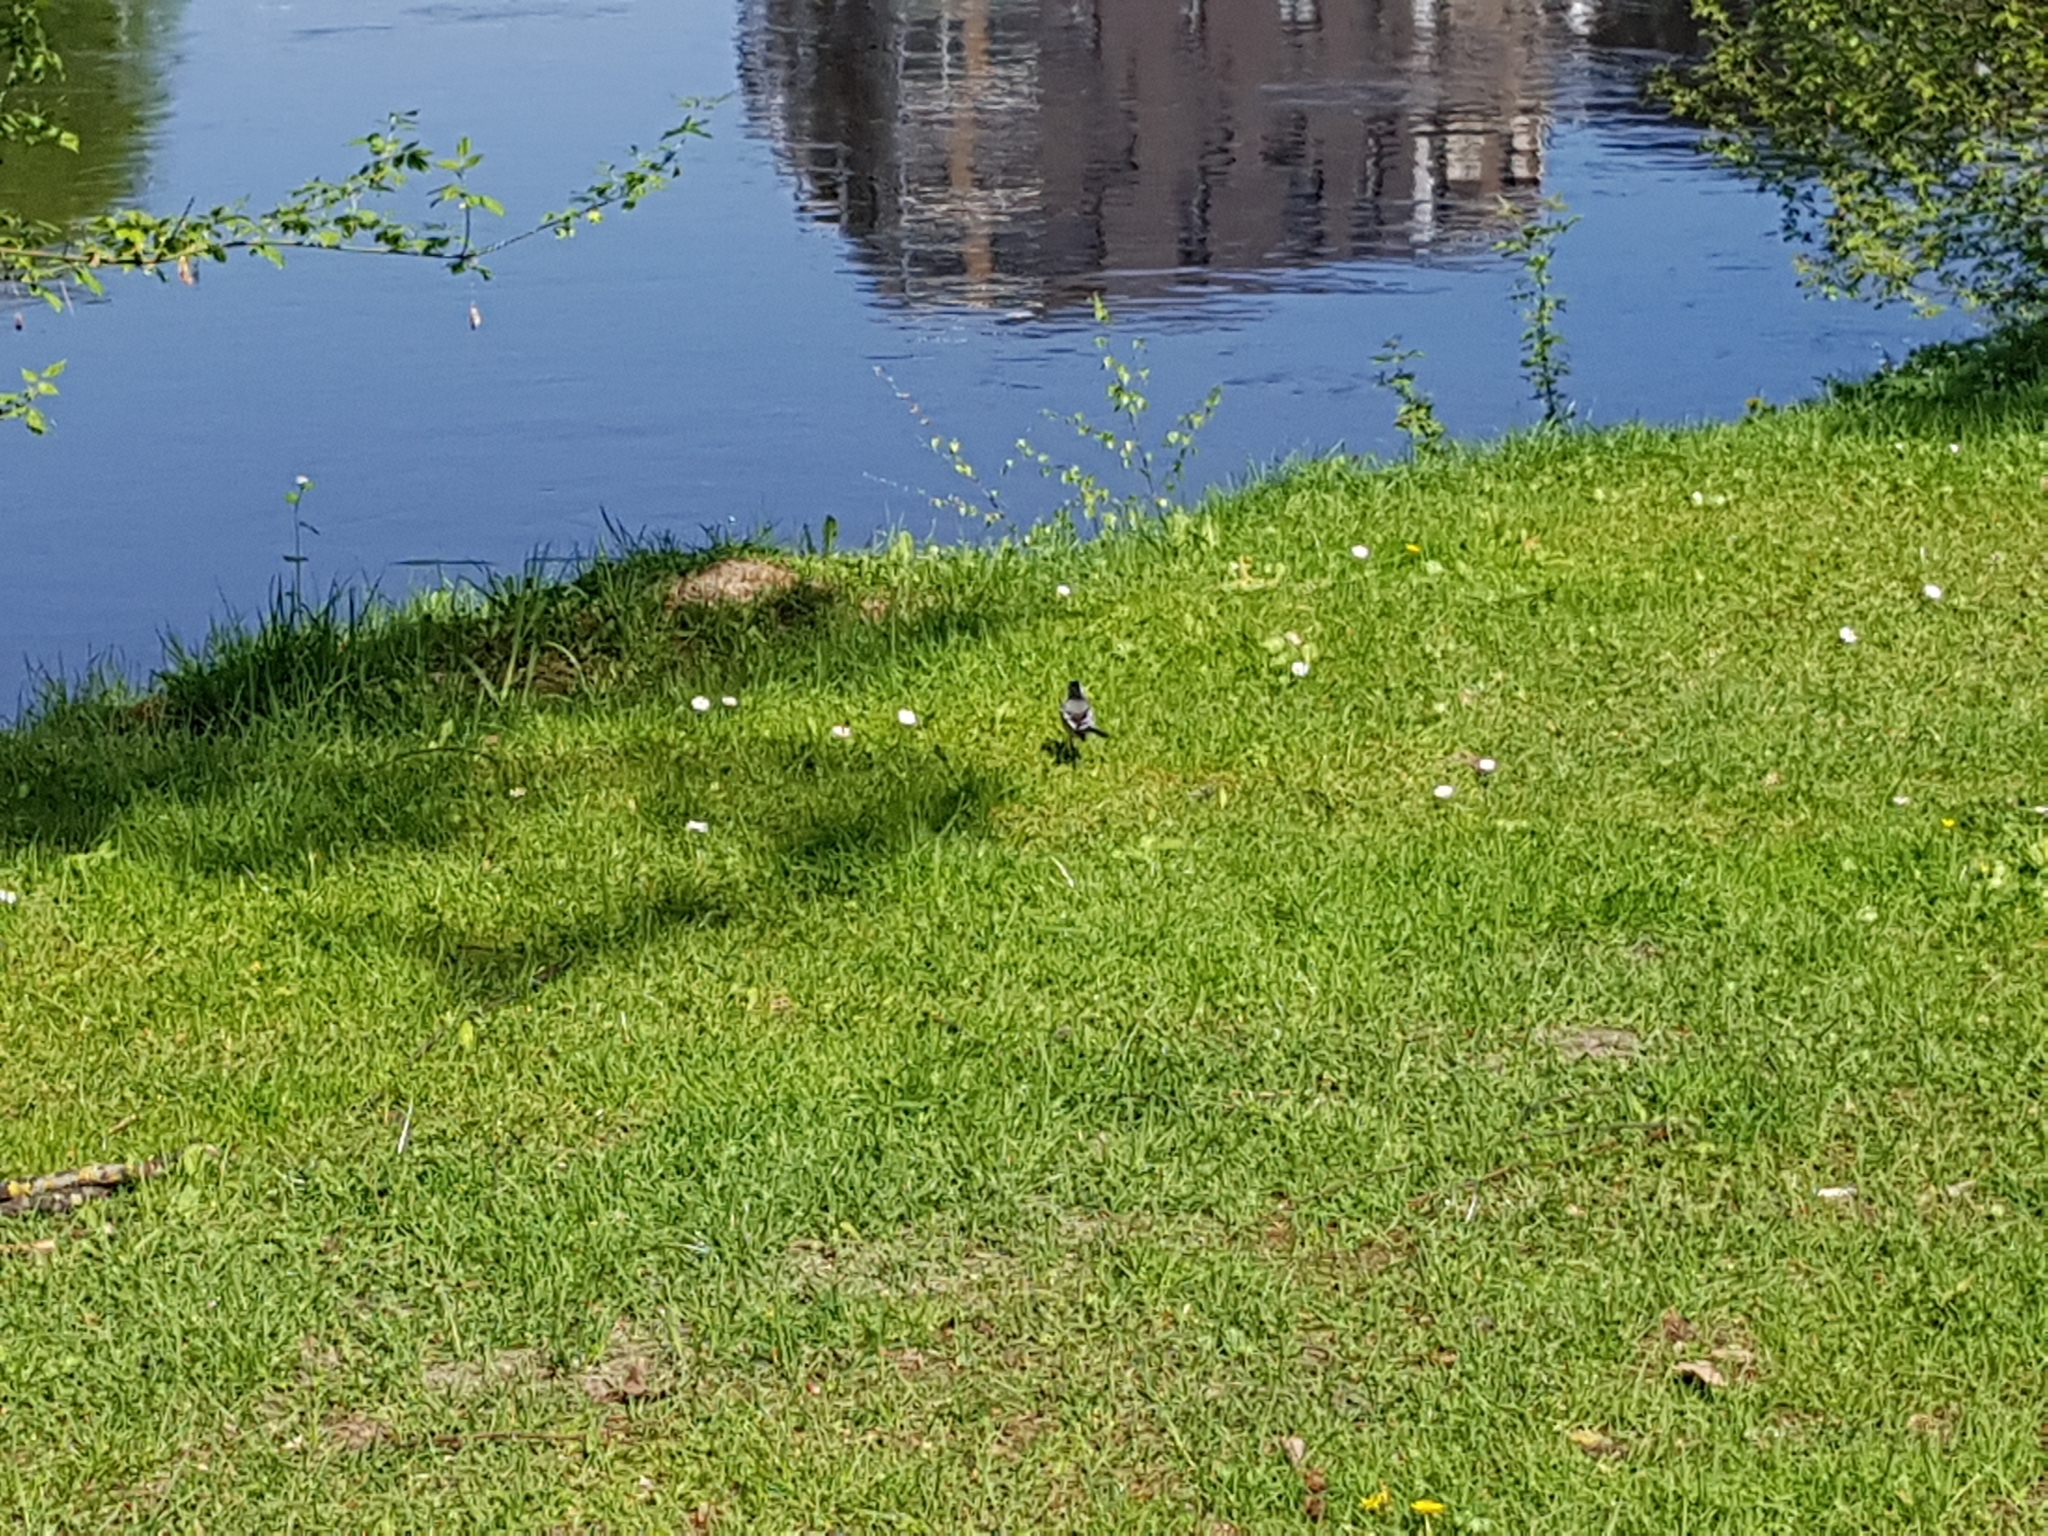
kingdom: Animalia
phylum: Chordata
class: Aves
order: Passeriformes
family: Motacillidae
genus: Motacilla
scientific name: Motacilla alba
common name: White wagtail
